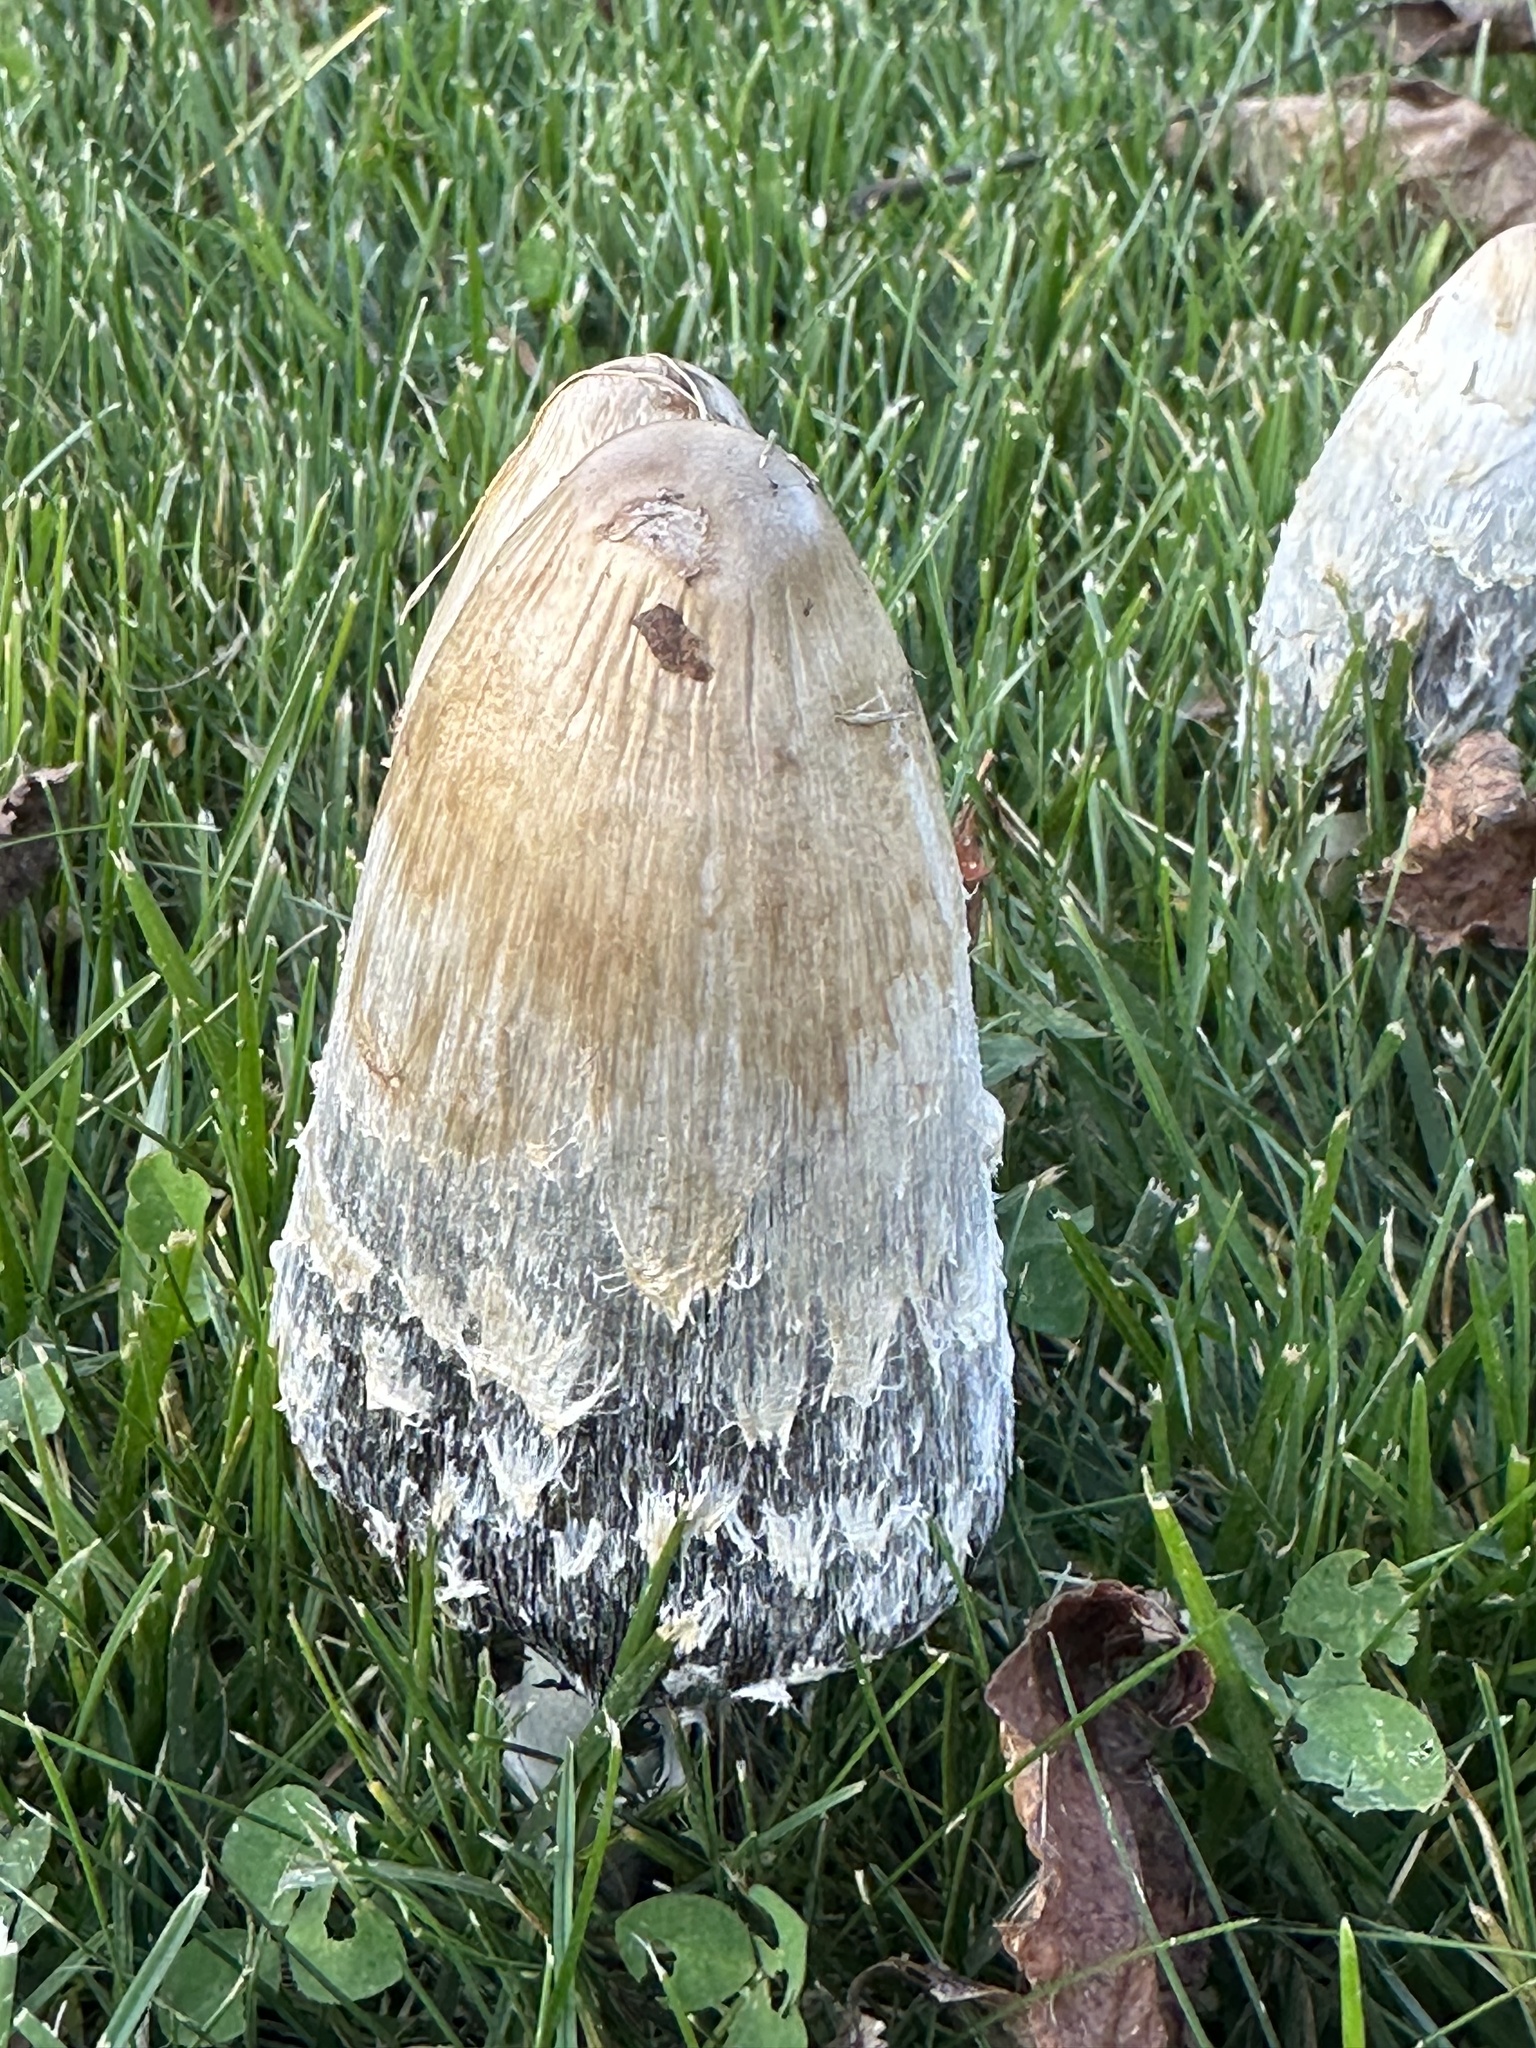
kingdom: Fungi
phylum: Basidiomycota
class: Agaricomycetes
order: Agaricales
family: Agaricaceae
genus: Coprinus
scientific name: Coprinus comatus
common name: Lawyer's wig
